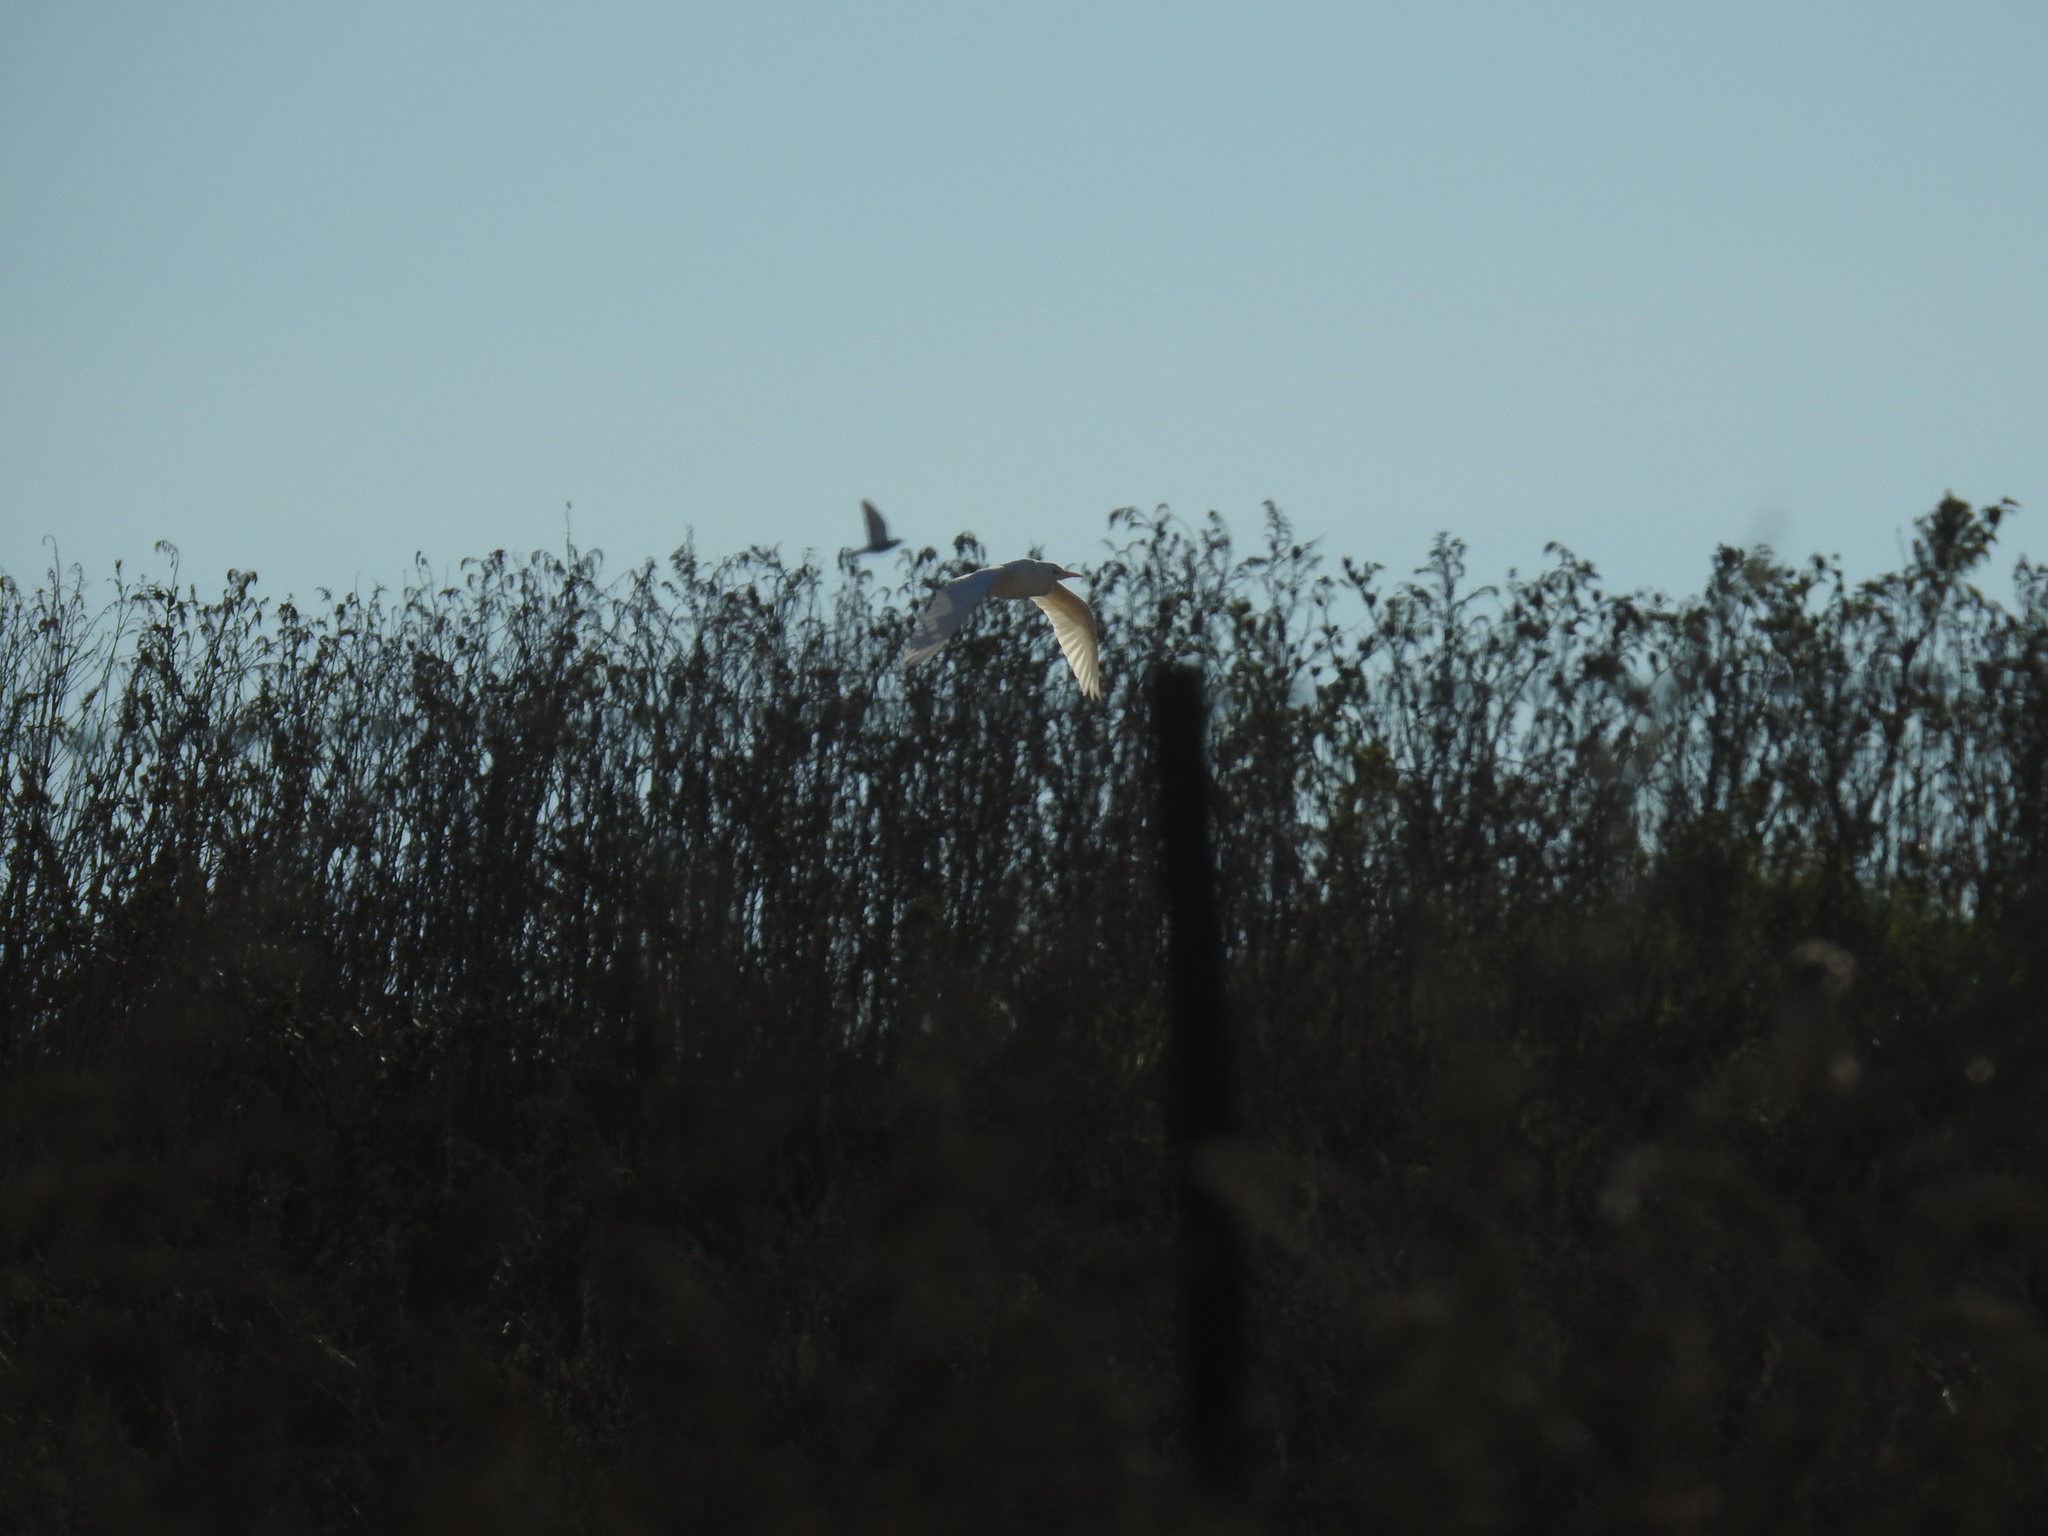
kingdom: Animalia
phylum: Chordata
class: Aves
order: Pelecaniformes
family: Ardeidae
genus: Bubulcus
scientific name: Bubulcus ibis
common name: Cattle egret
